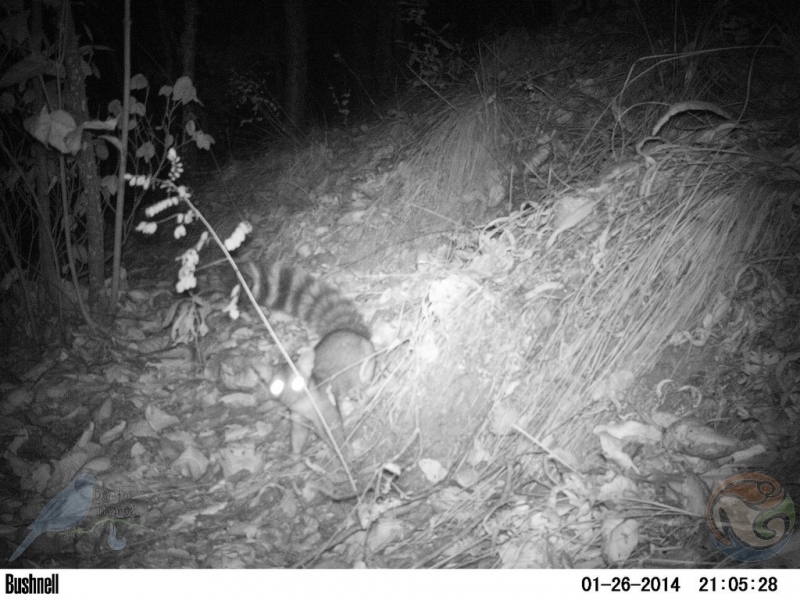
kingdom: Animalia
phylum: Chordata
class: Mammalia
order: Carnivora
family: Procyonidae
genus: Bassariscus
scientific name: Bassariscus astutus
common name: Ringtail
